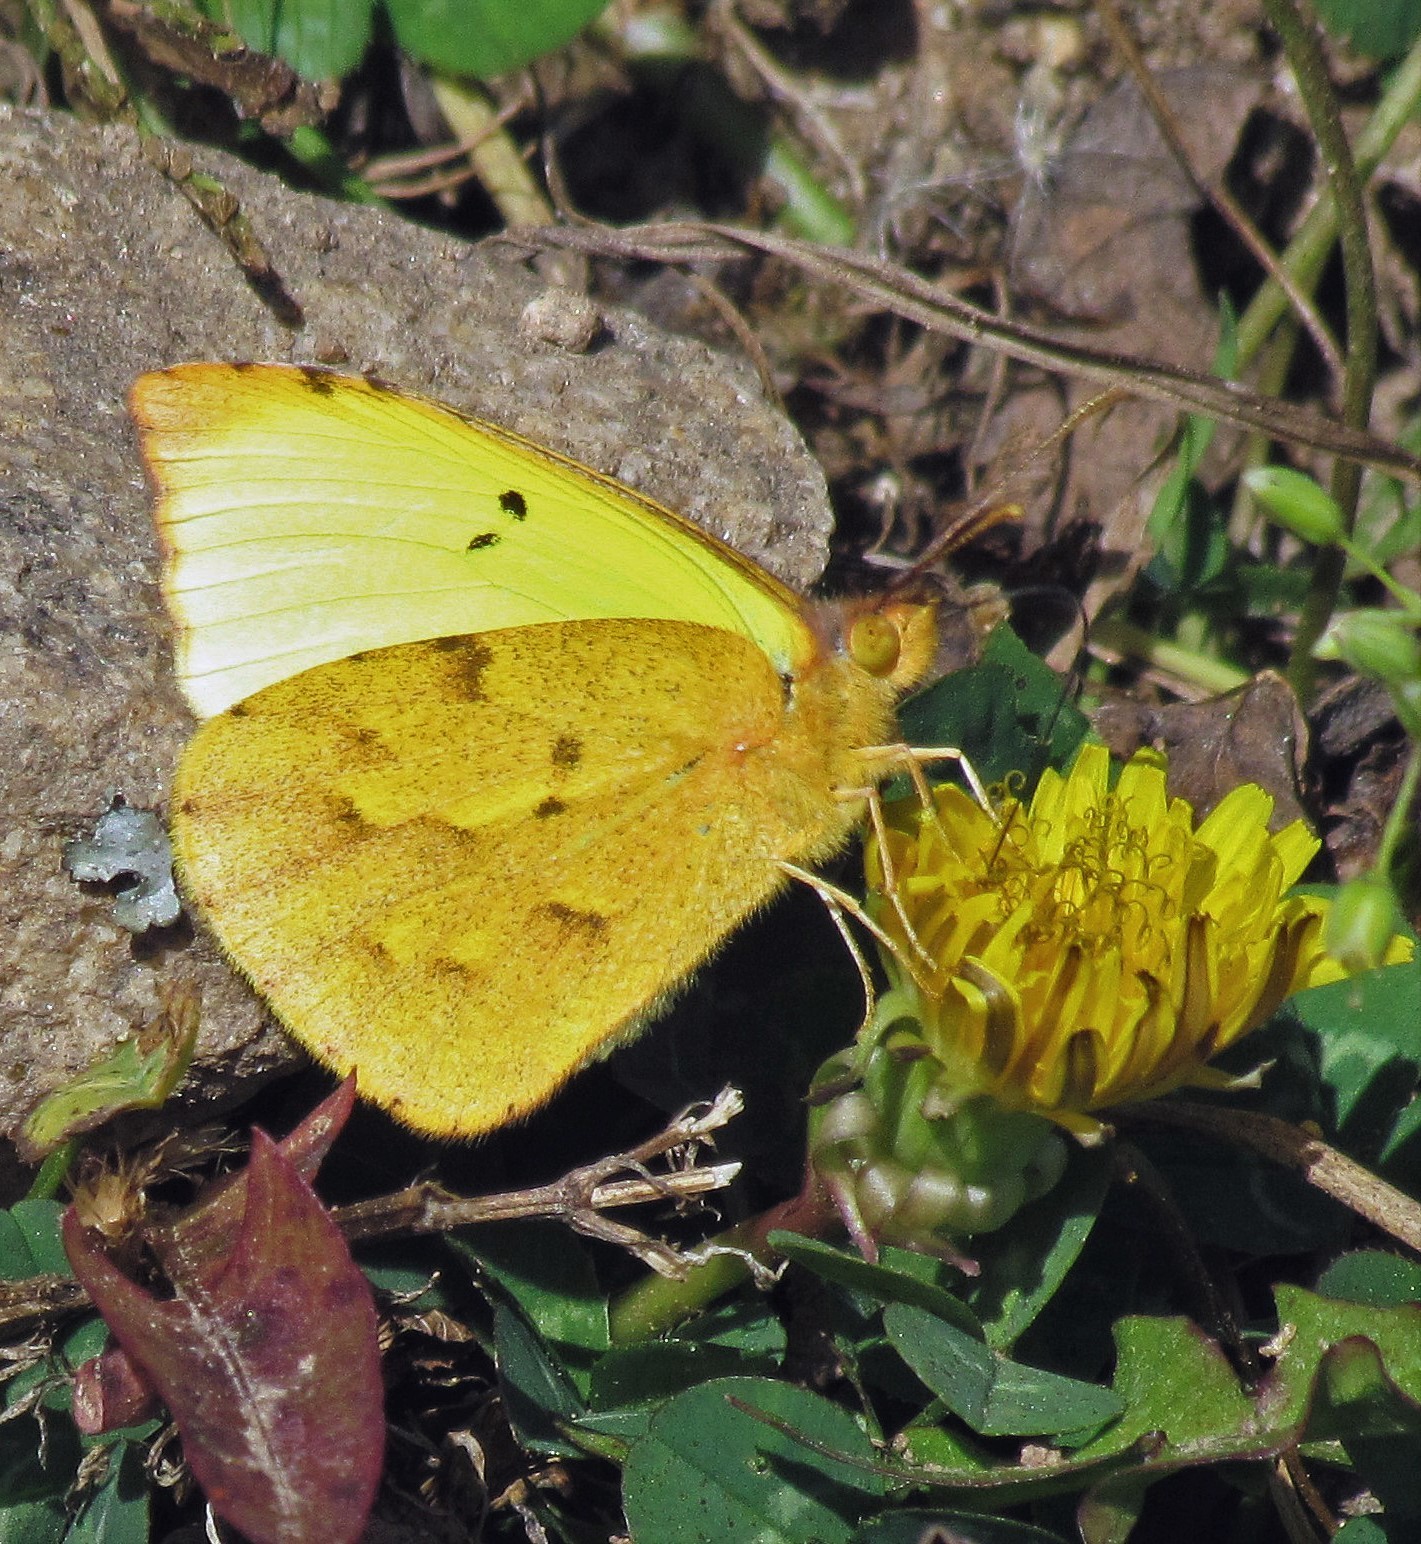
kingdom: Animalia
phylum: Arthropoda
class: Insecta
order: Lepidoptera
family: Pieridae
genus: Teriocolias
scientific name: Teriocolias zelia
